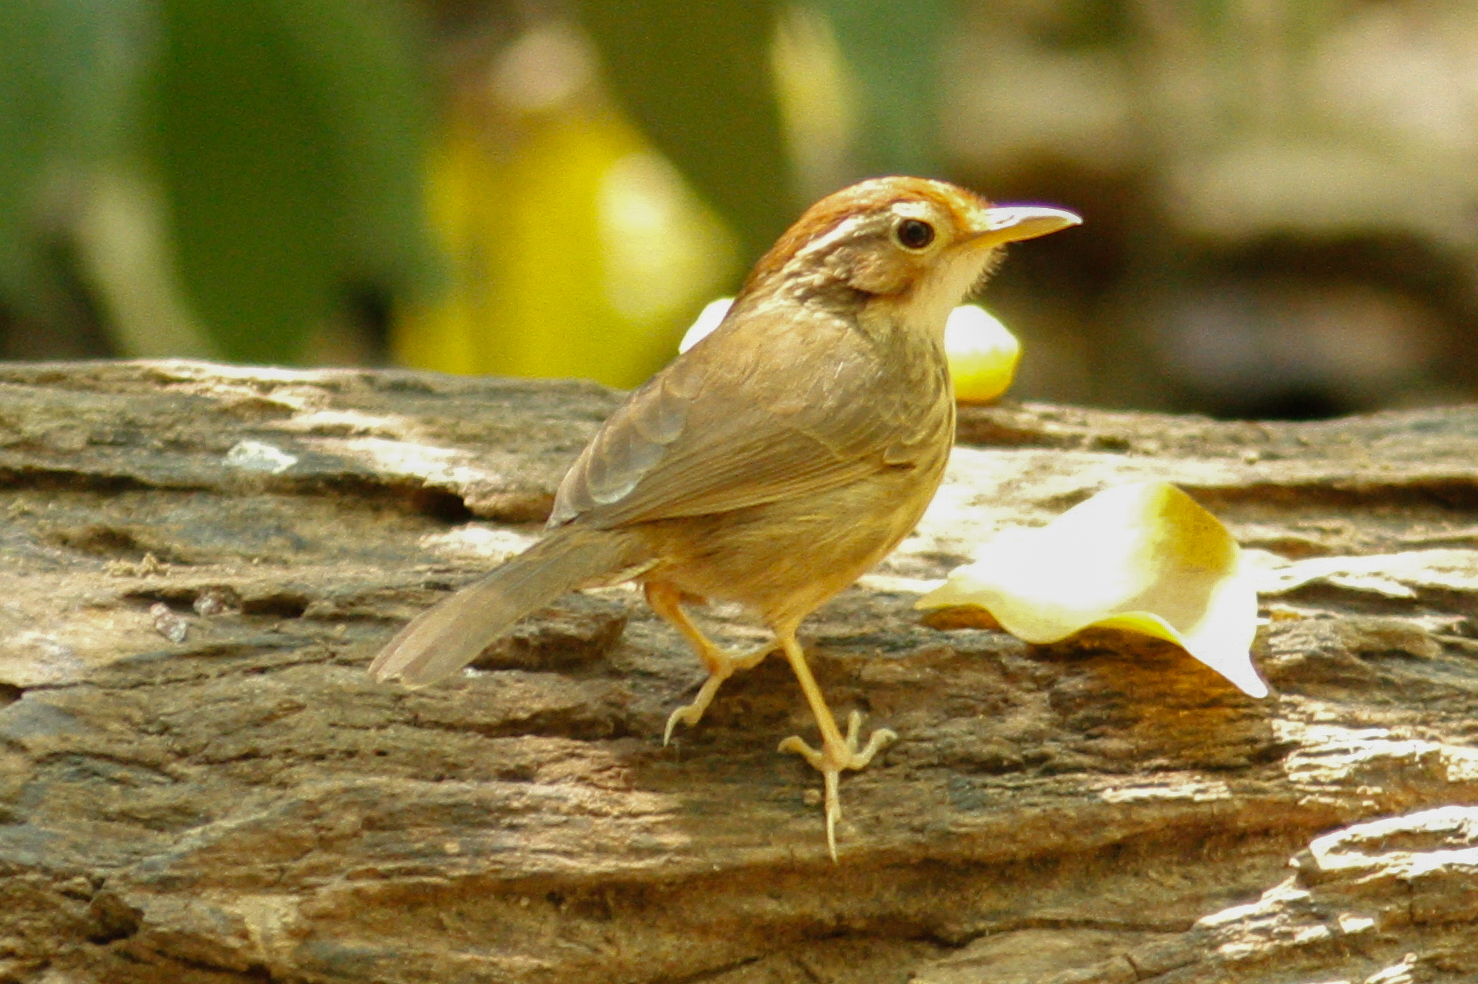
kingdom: Animalia
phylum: Chordata
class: Aves
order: Passeriformes
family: Pellorneidae
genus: Pellorneum
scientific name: Pellorneum ruficeps
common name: Puff-throated babbler
